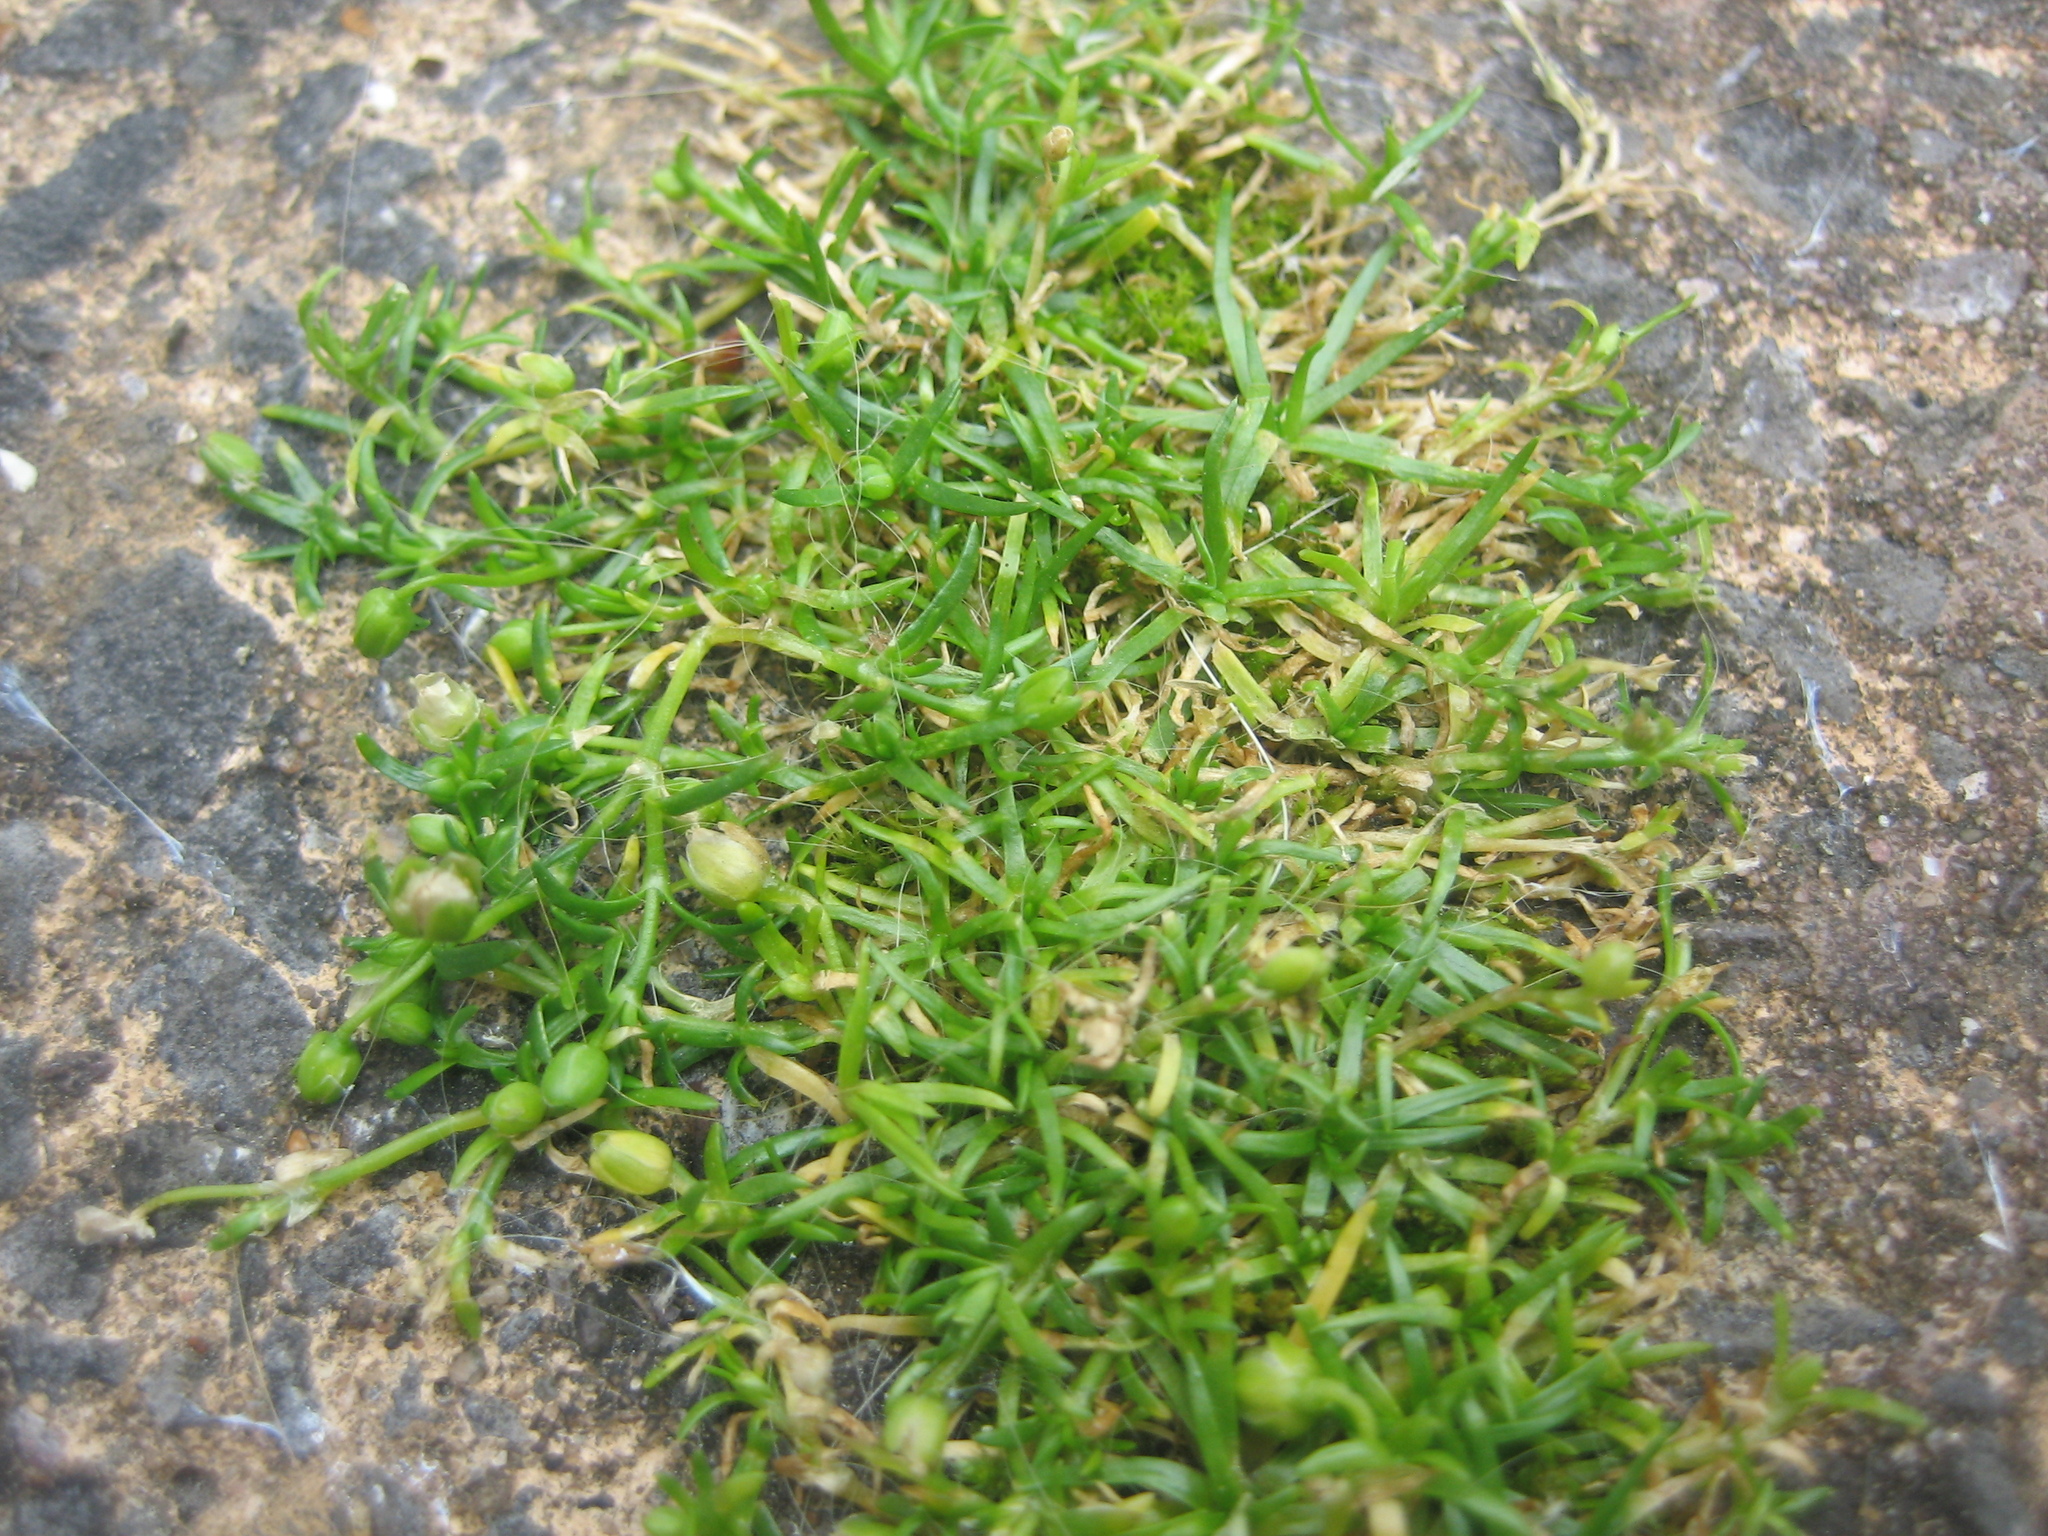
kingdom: Plantae
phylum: Tracheophyta
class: Magnoliopsida
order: Caryophyllales
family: Caryophyllaceae
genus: Sagina
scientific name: Sagina procumbens
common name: Procumbent pearlwort
